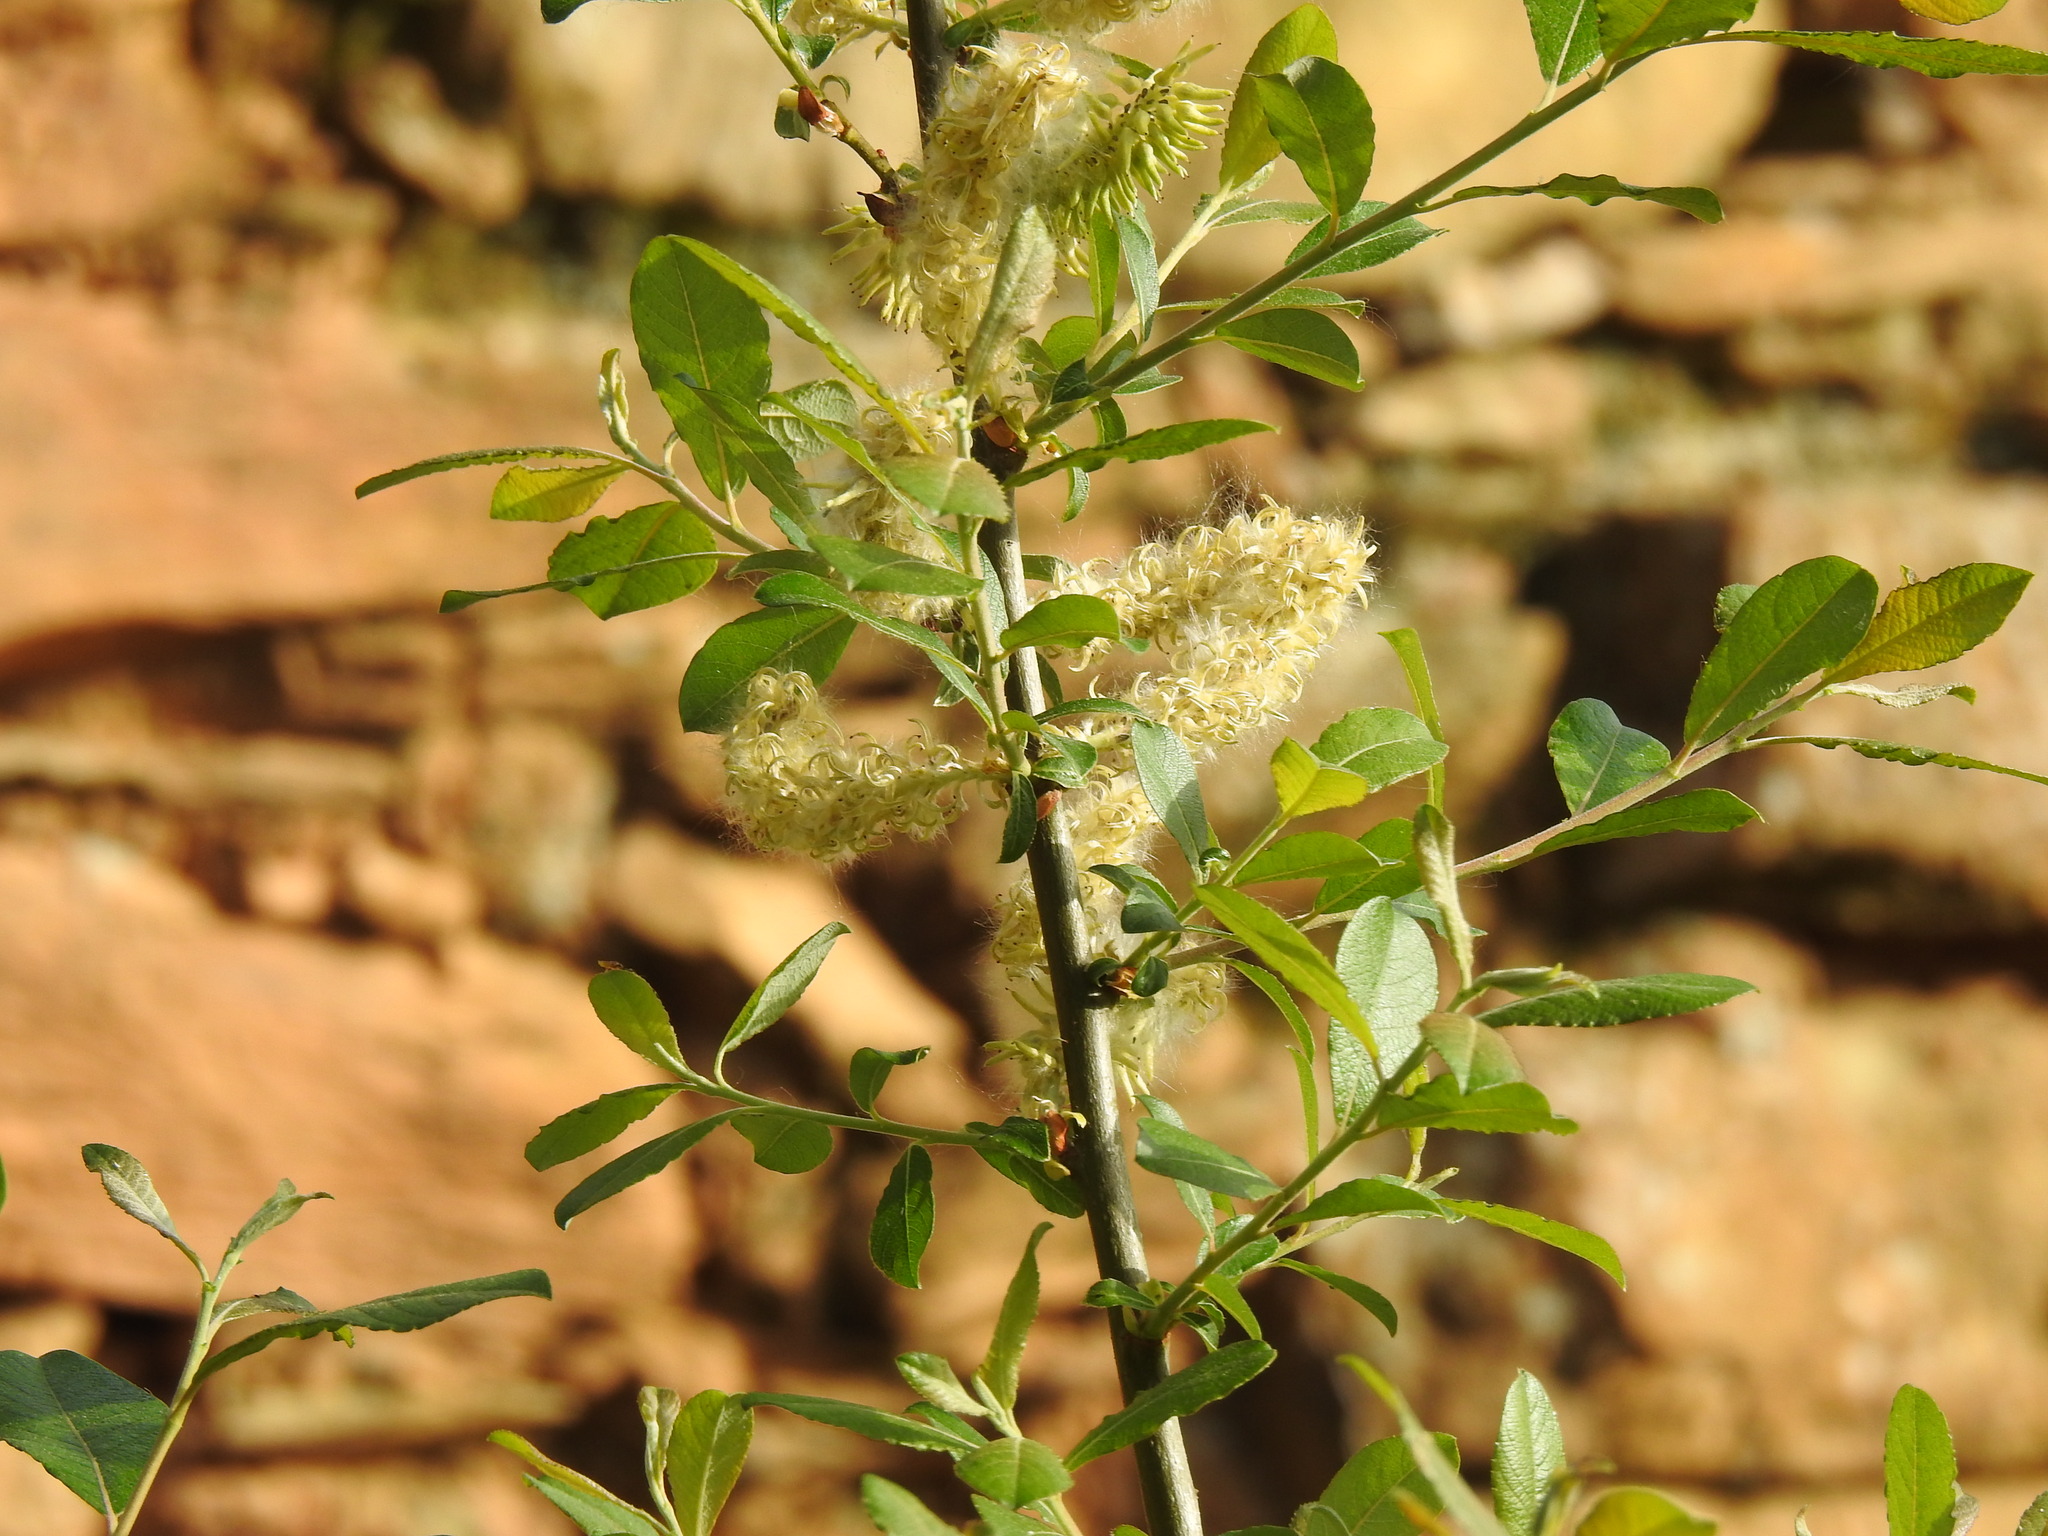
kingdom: Plantae
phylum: Tracheophyta
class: Magnoliopsida
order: Malpighiales
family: Salicaceae
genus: Salix
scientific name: Salix atrocinerea
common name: Rusty willow
